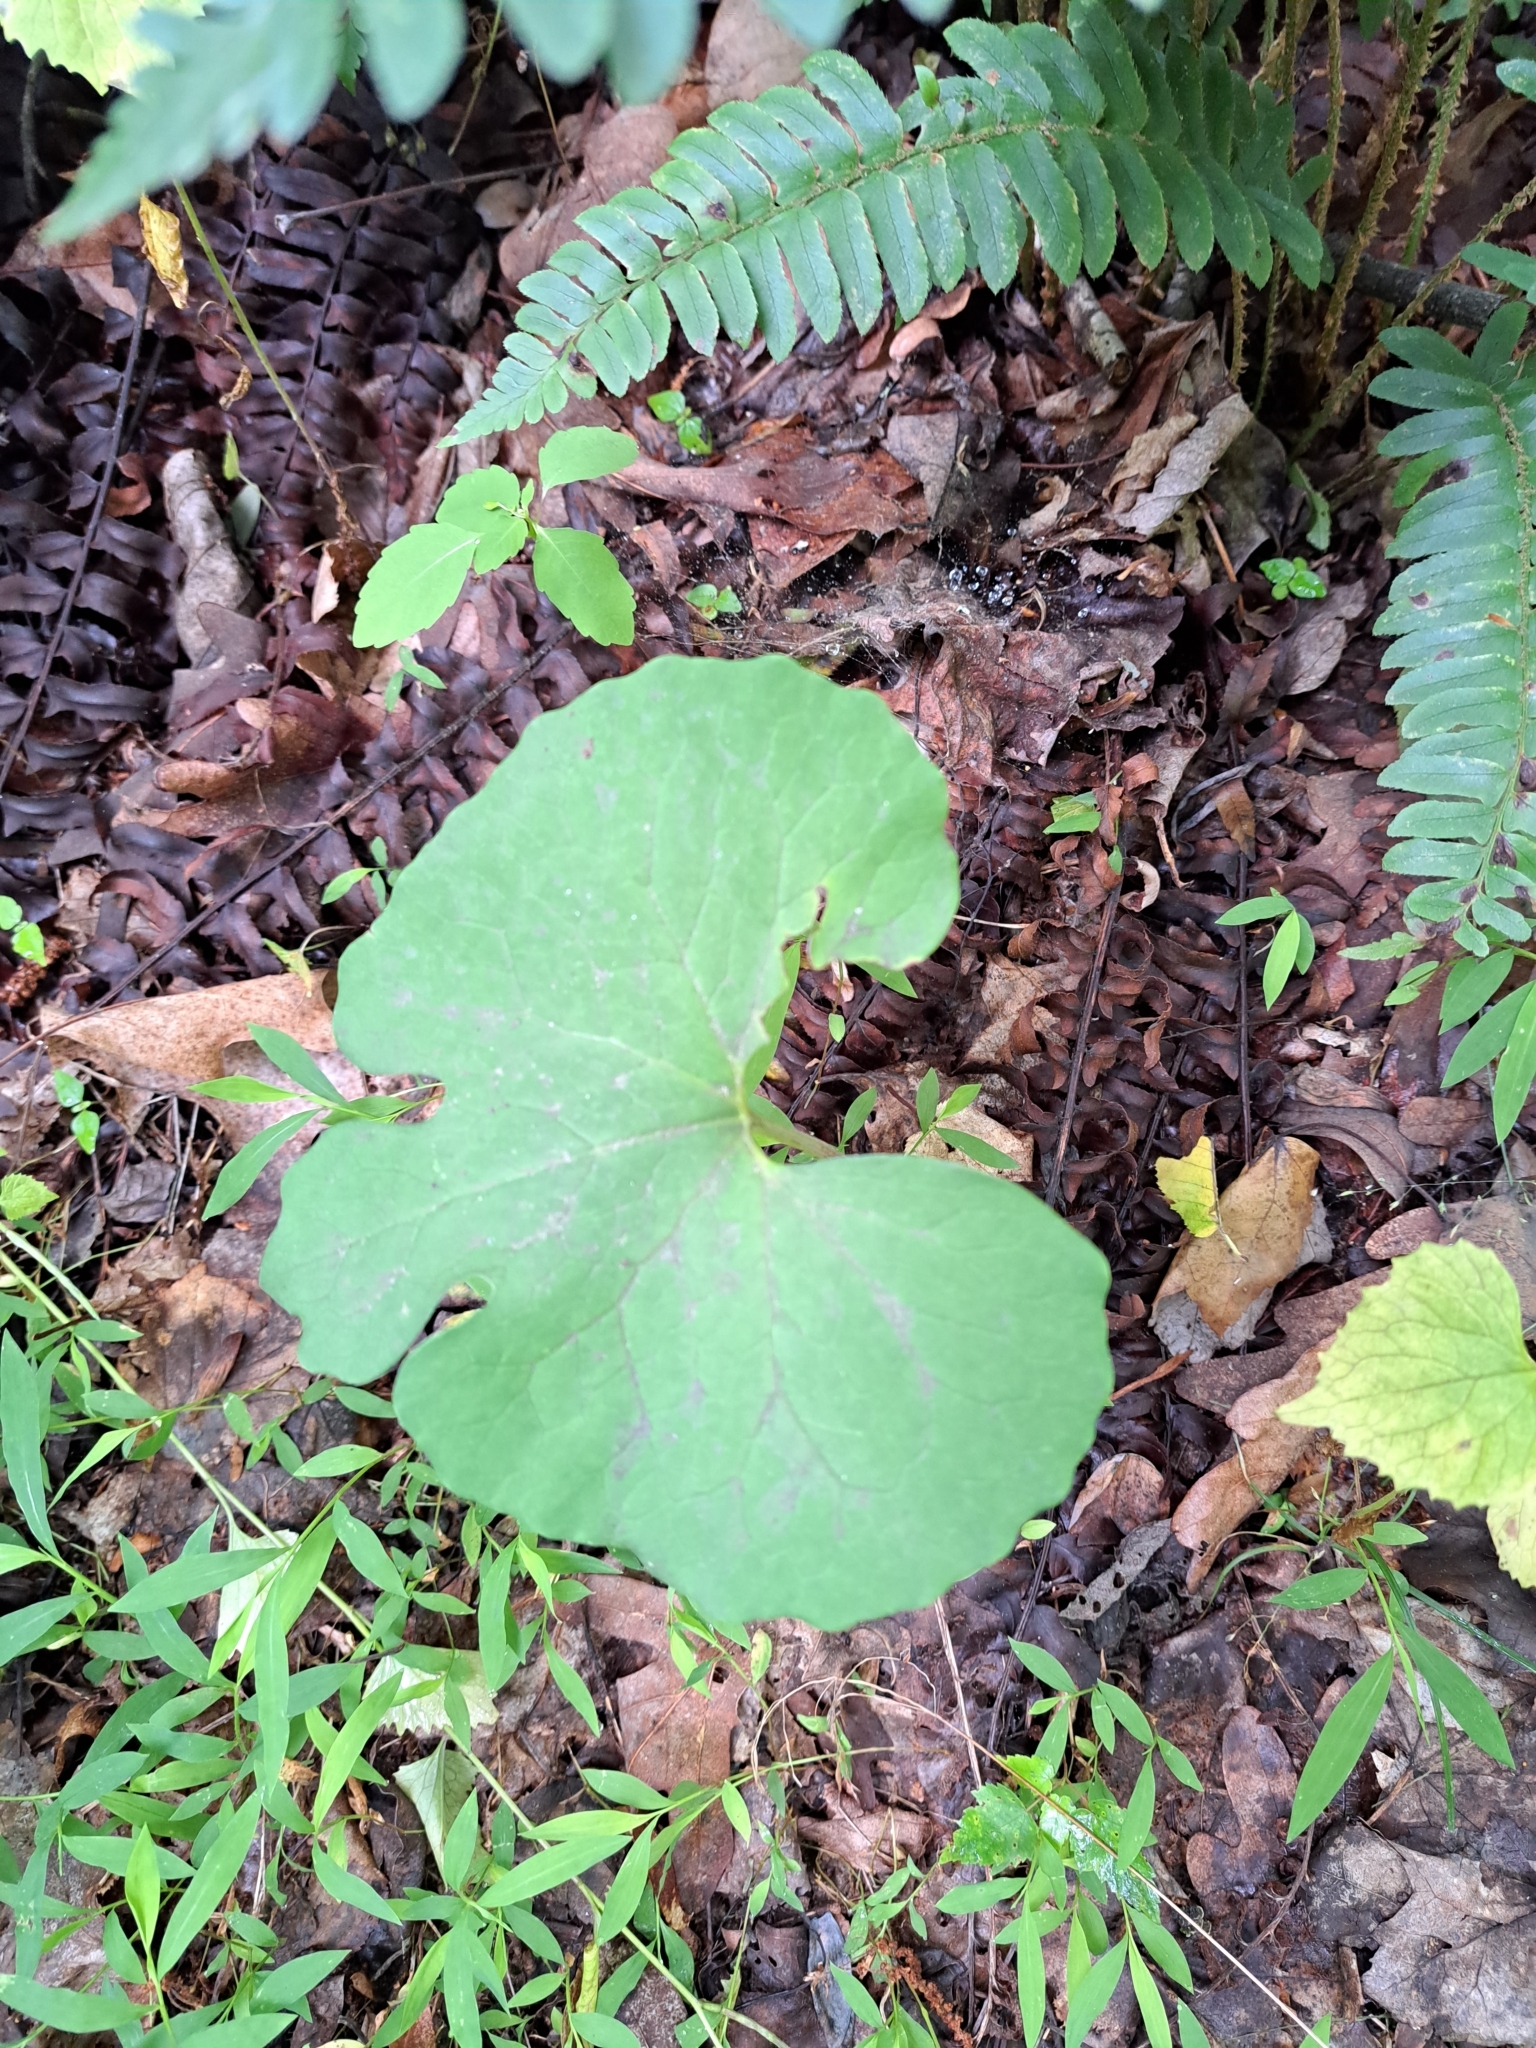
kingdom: Plantae
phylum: Tracheophyta
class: Magnoliopsida
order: Ranunculales
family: Papaveraceae
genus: Sanguinaria
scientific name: Sanguinaria canadensis
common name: Bloodroot
